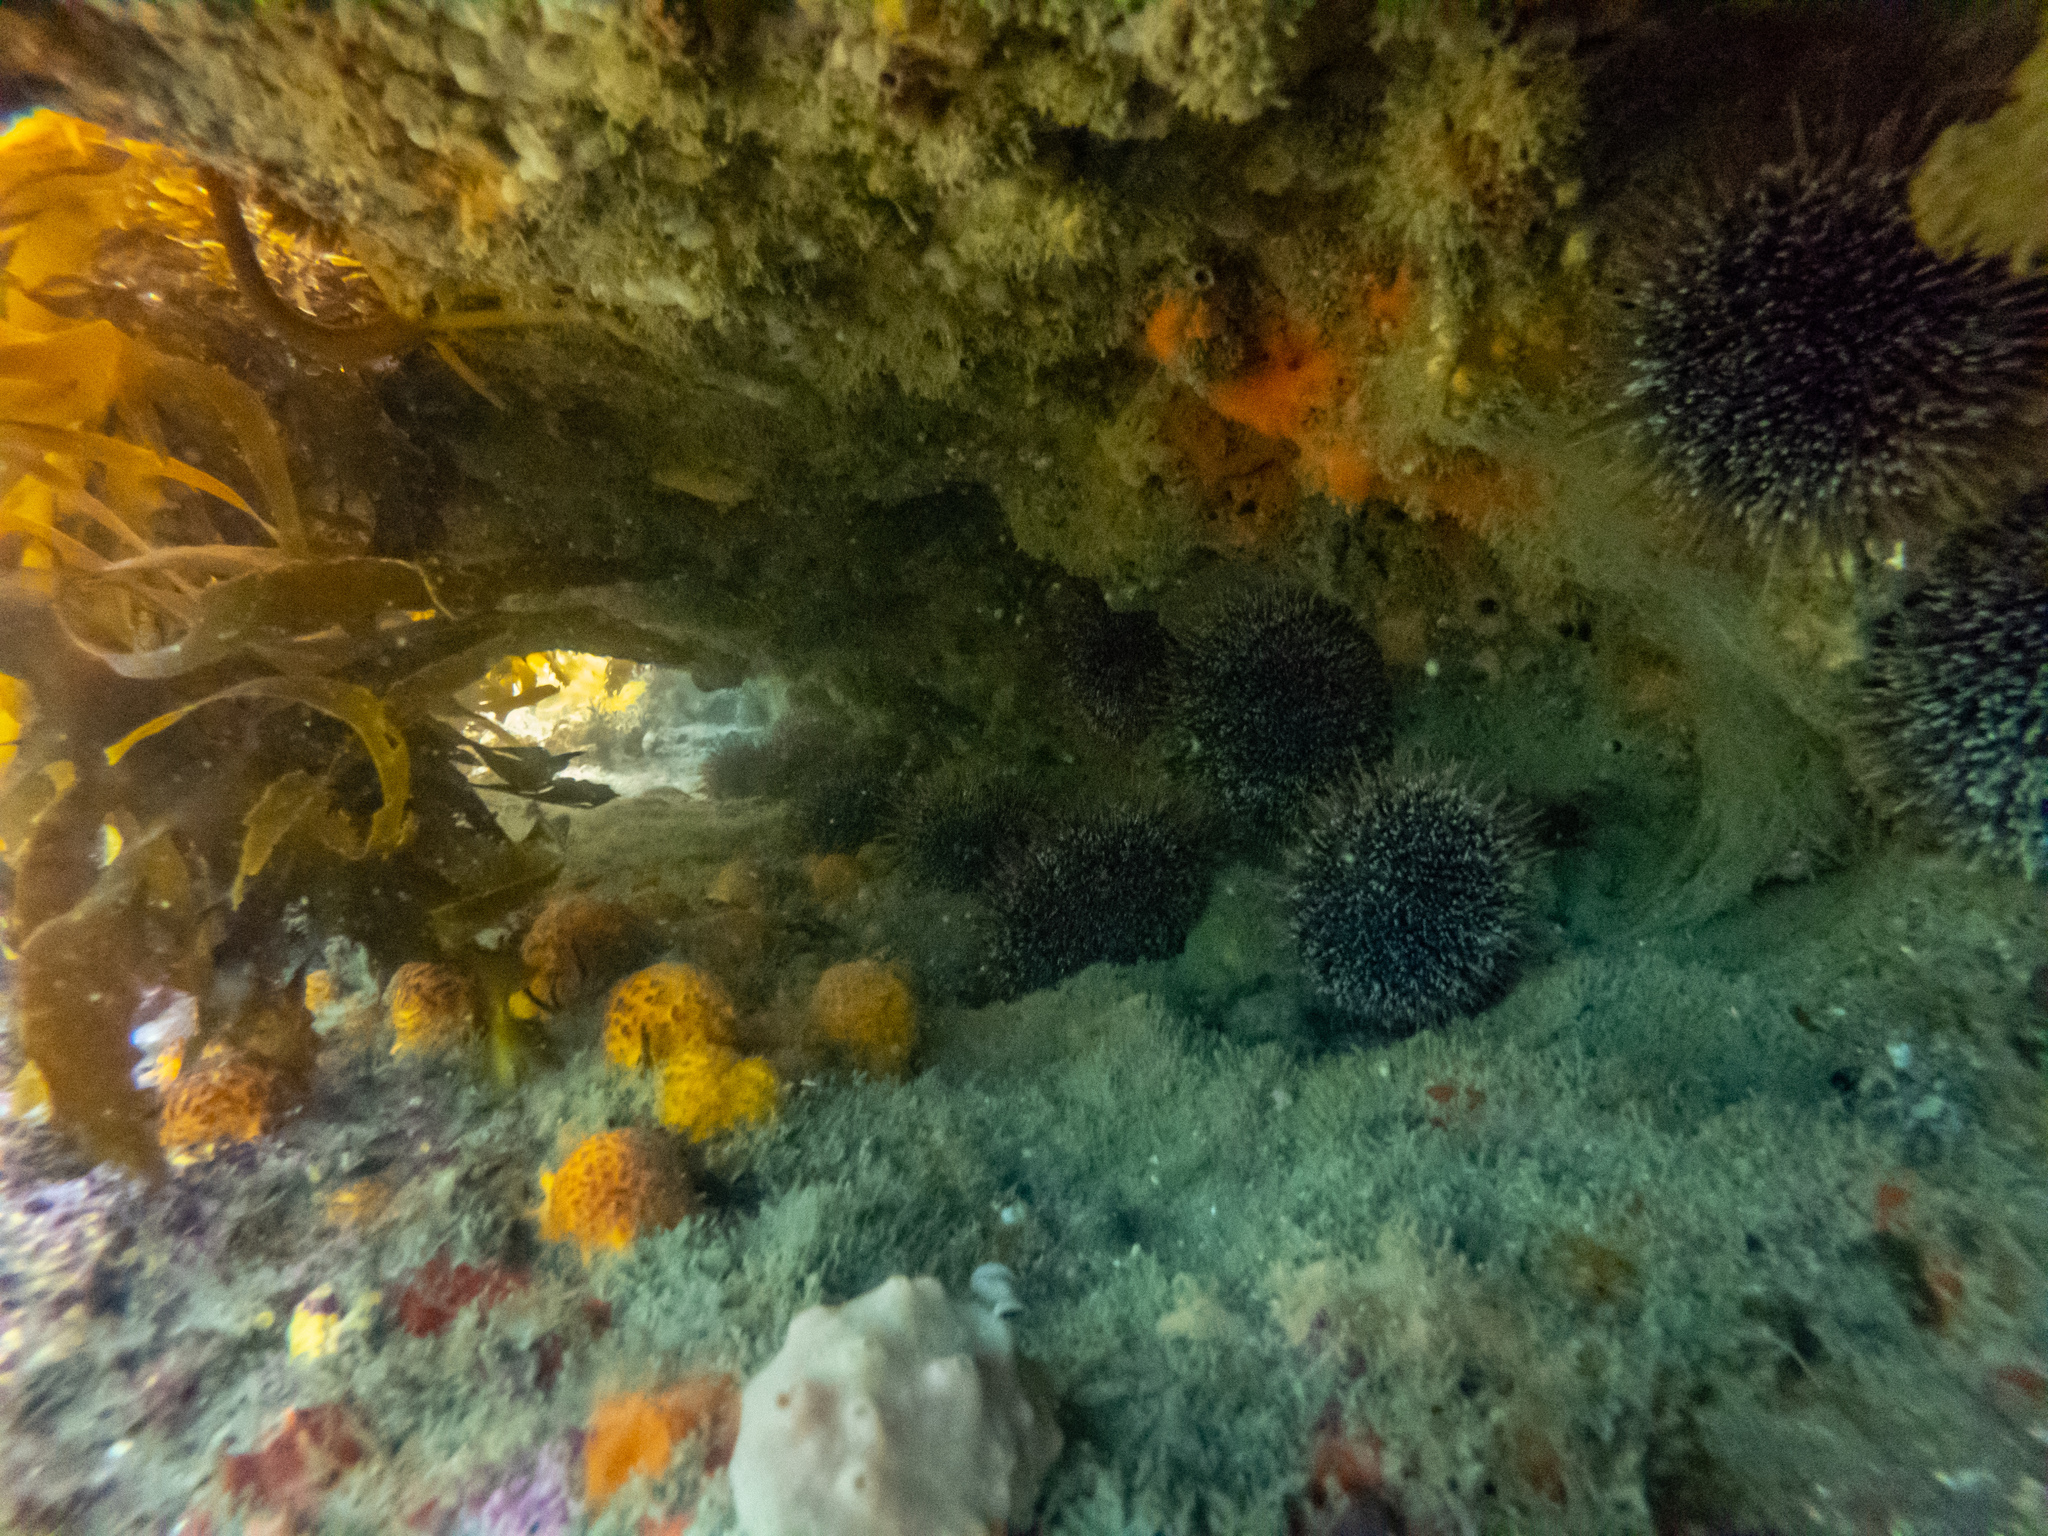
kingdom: Animalia
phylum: Echinodermata
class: Echinoidea
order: Camarodonta
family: Echinometridae
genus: Evechinus
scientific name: Evechinus chloroticus
